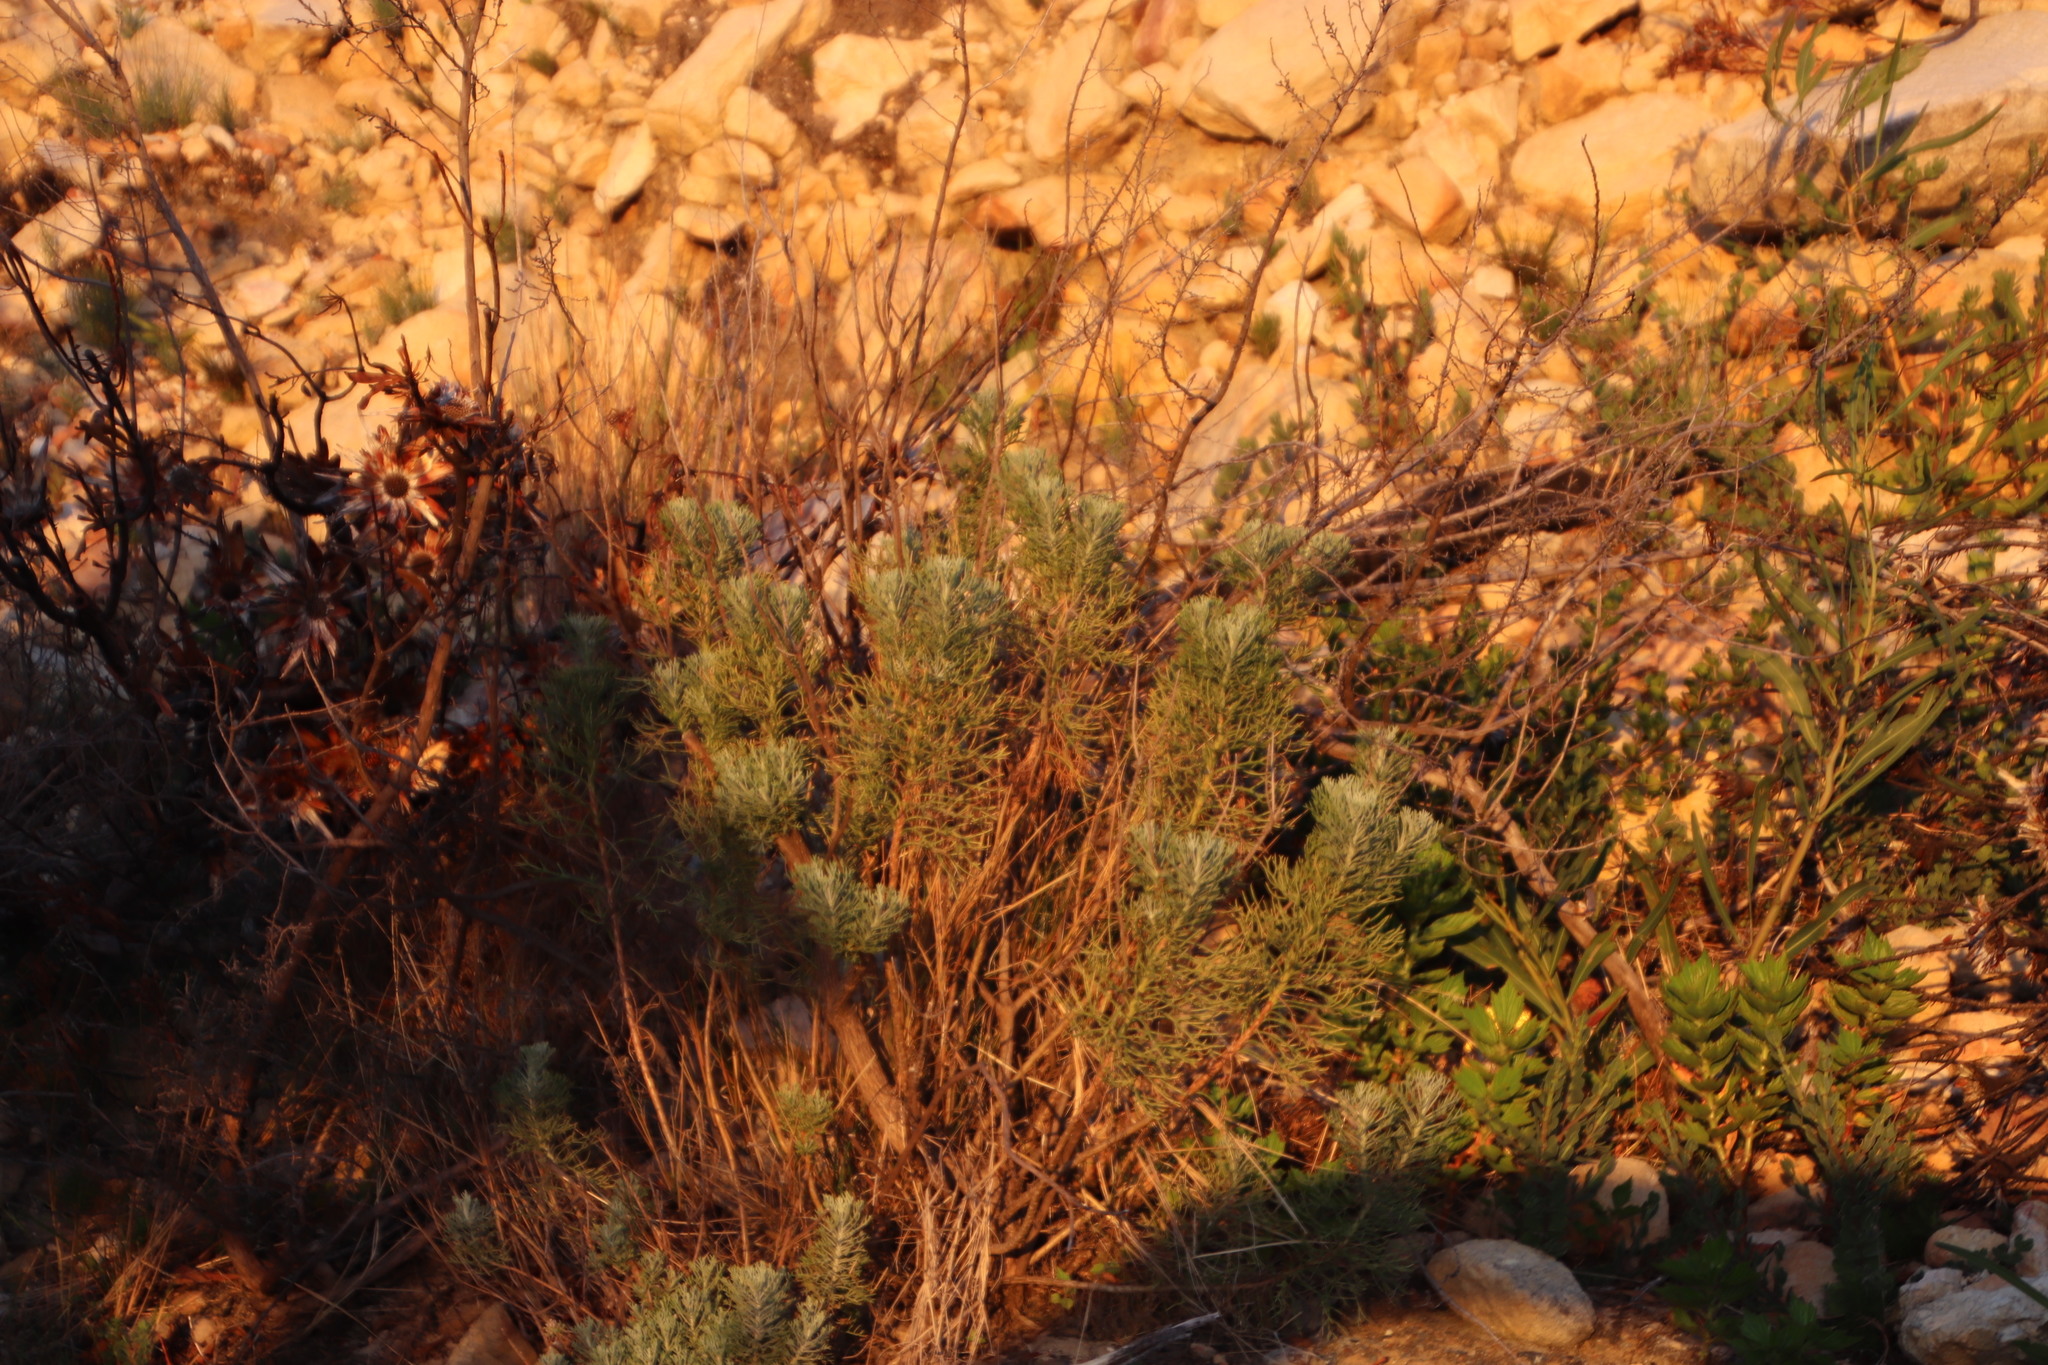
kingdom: Plantae
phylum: Tracheophyta
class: Magnoliopsida
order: Asterales
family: Asteraceae
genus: Athanasia
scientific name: Athanasia crithmifolia
